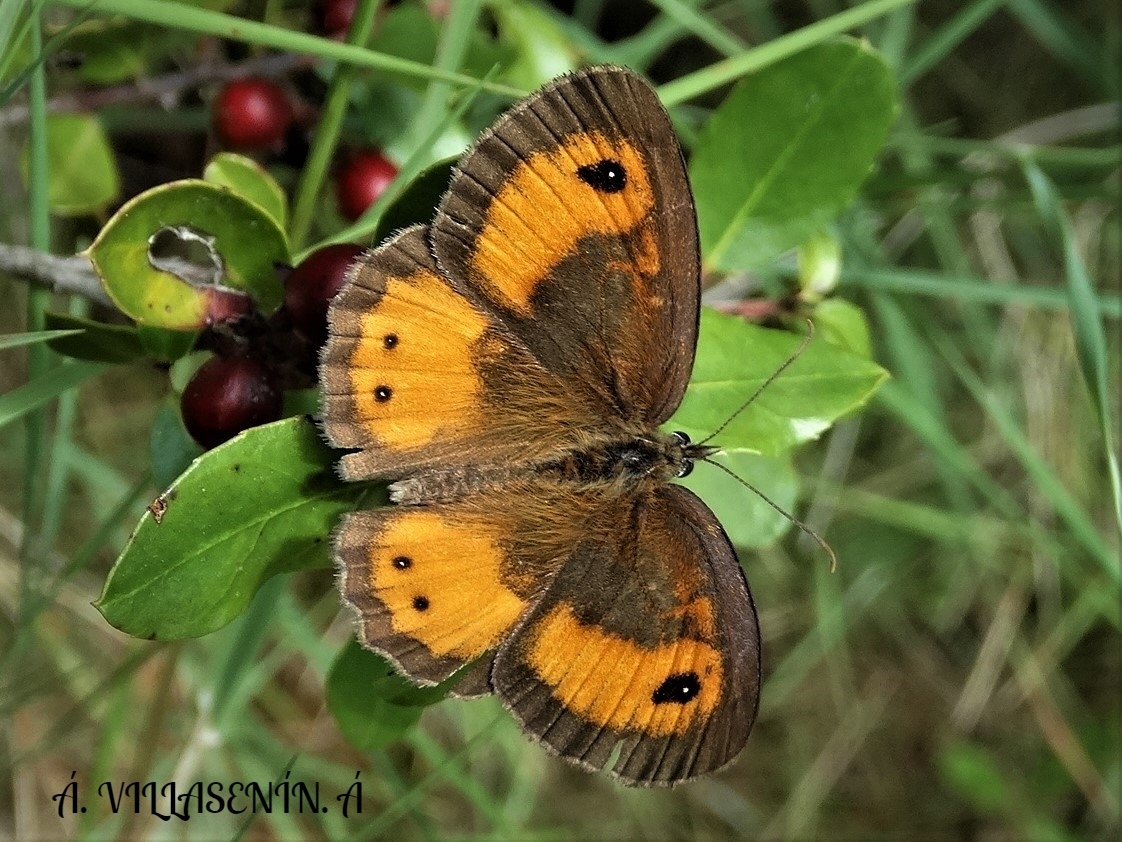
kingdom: Animalia
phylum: Arthropoda
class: Insecta
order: Lepidoptera
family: Nymphalidae
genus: Pyronia
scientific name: Pyronia bathseba
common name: Spanish gatekeeper
